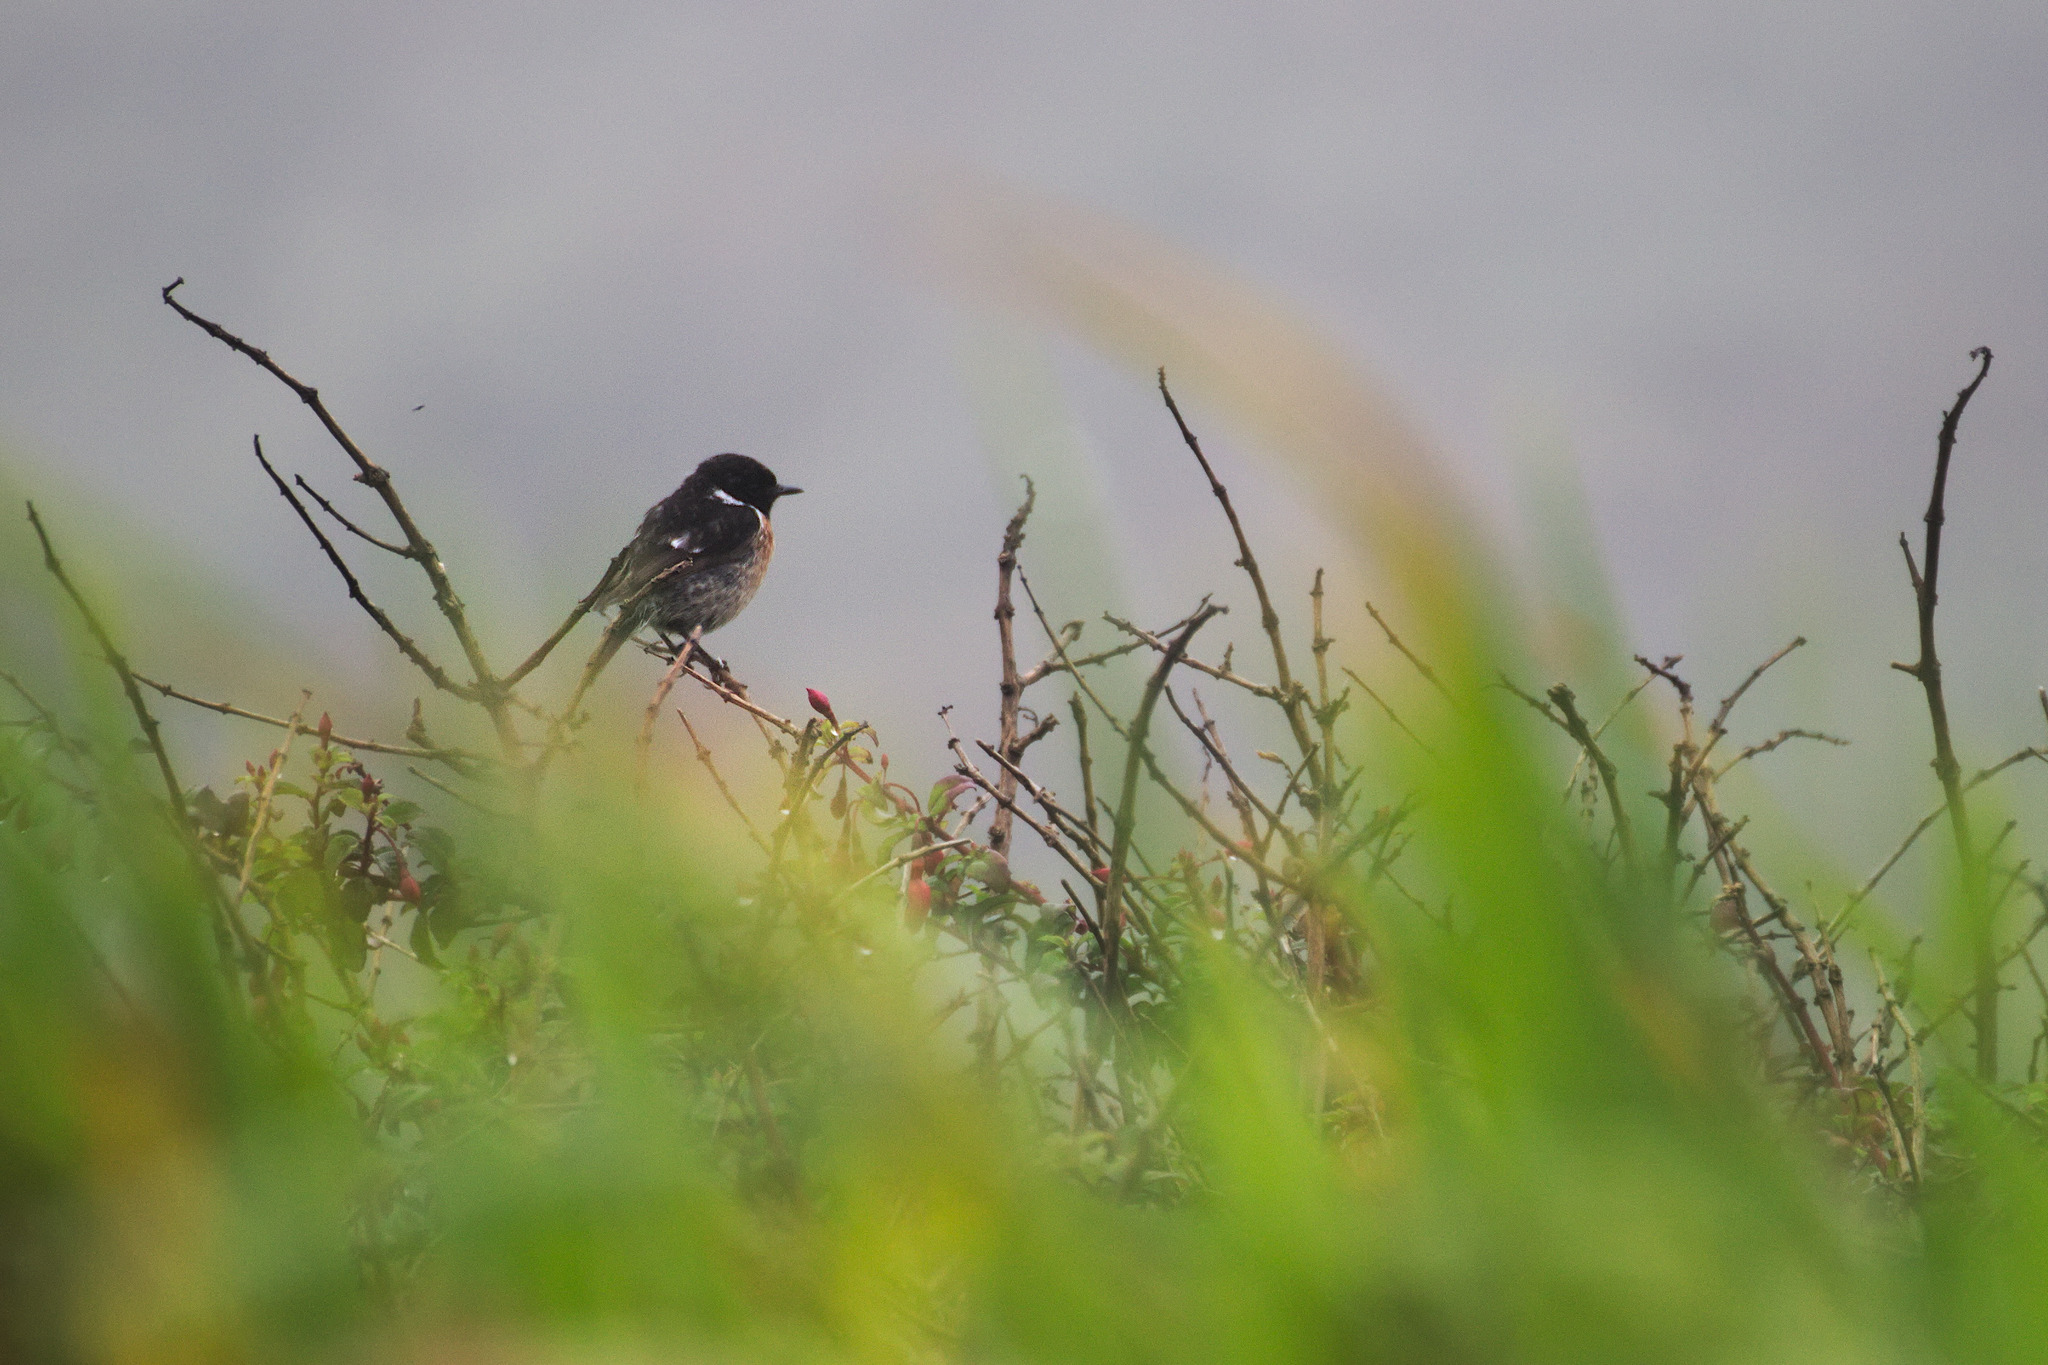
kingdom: Animalia
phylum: Chordata
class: Aves
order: Passeriformes
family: Muscicapidae
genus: Saxicola
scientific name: Saxicola rubicola
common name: European stonechat
